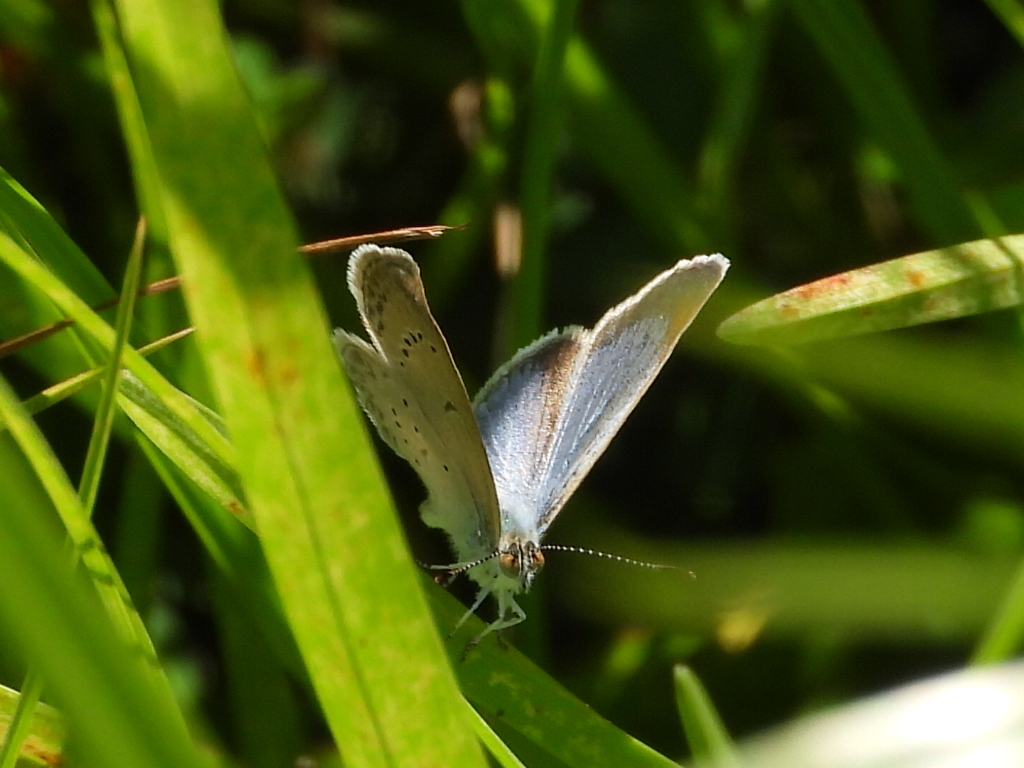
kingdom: Animalia
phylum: Arthropoda
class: Insecta
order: Lepidoptera
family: Lycaenidae
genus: Zizina
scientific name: Zizina otis
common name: Lesser grass blue
